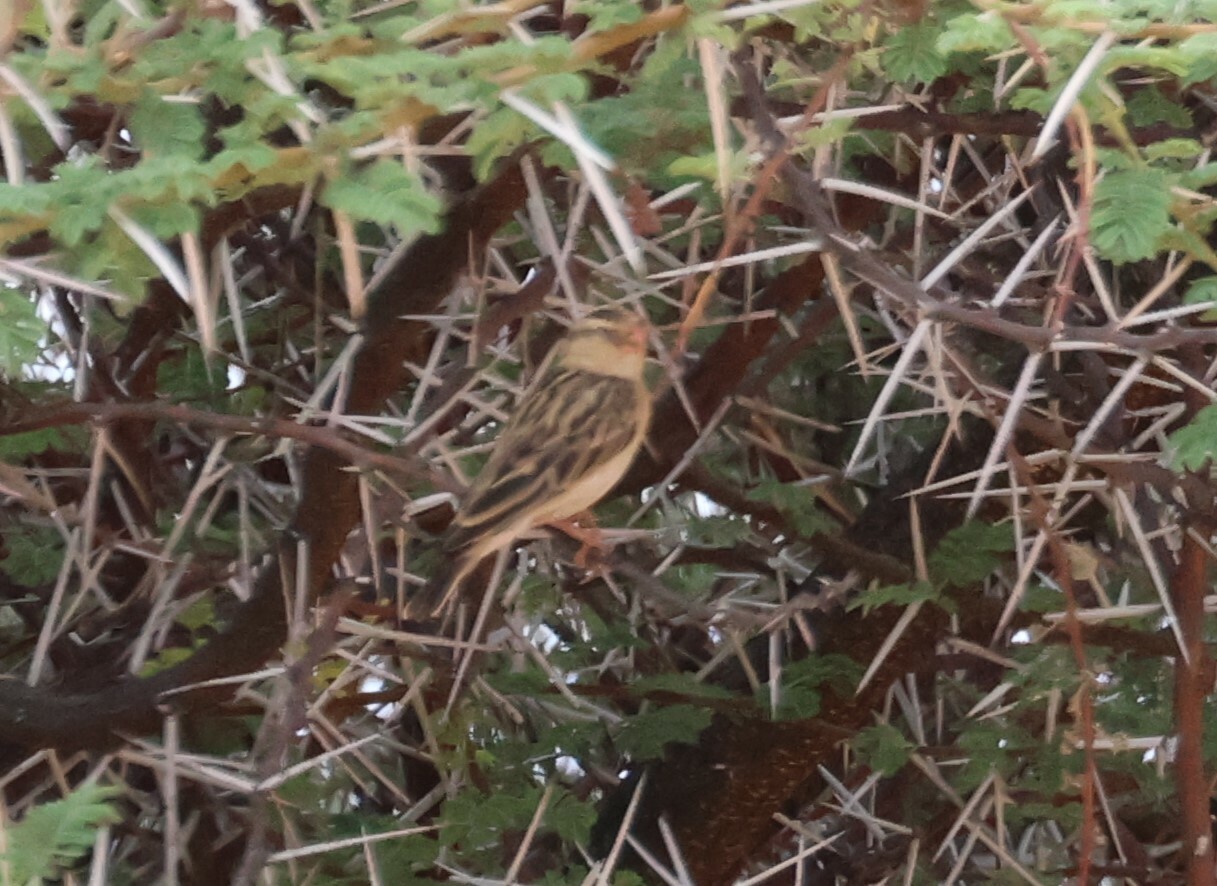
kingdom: Animalia
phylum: Chordata
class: Aves
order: Passeriformes
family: Viduidae
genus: Vidua
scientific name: Vidua regia
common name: Shaft-tailed whydah
